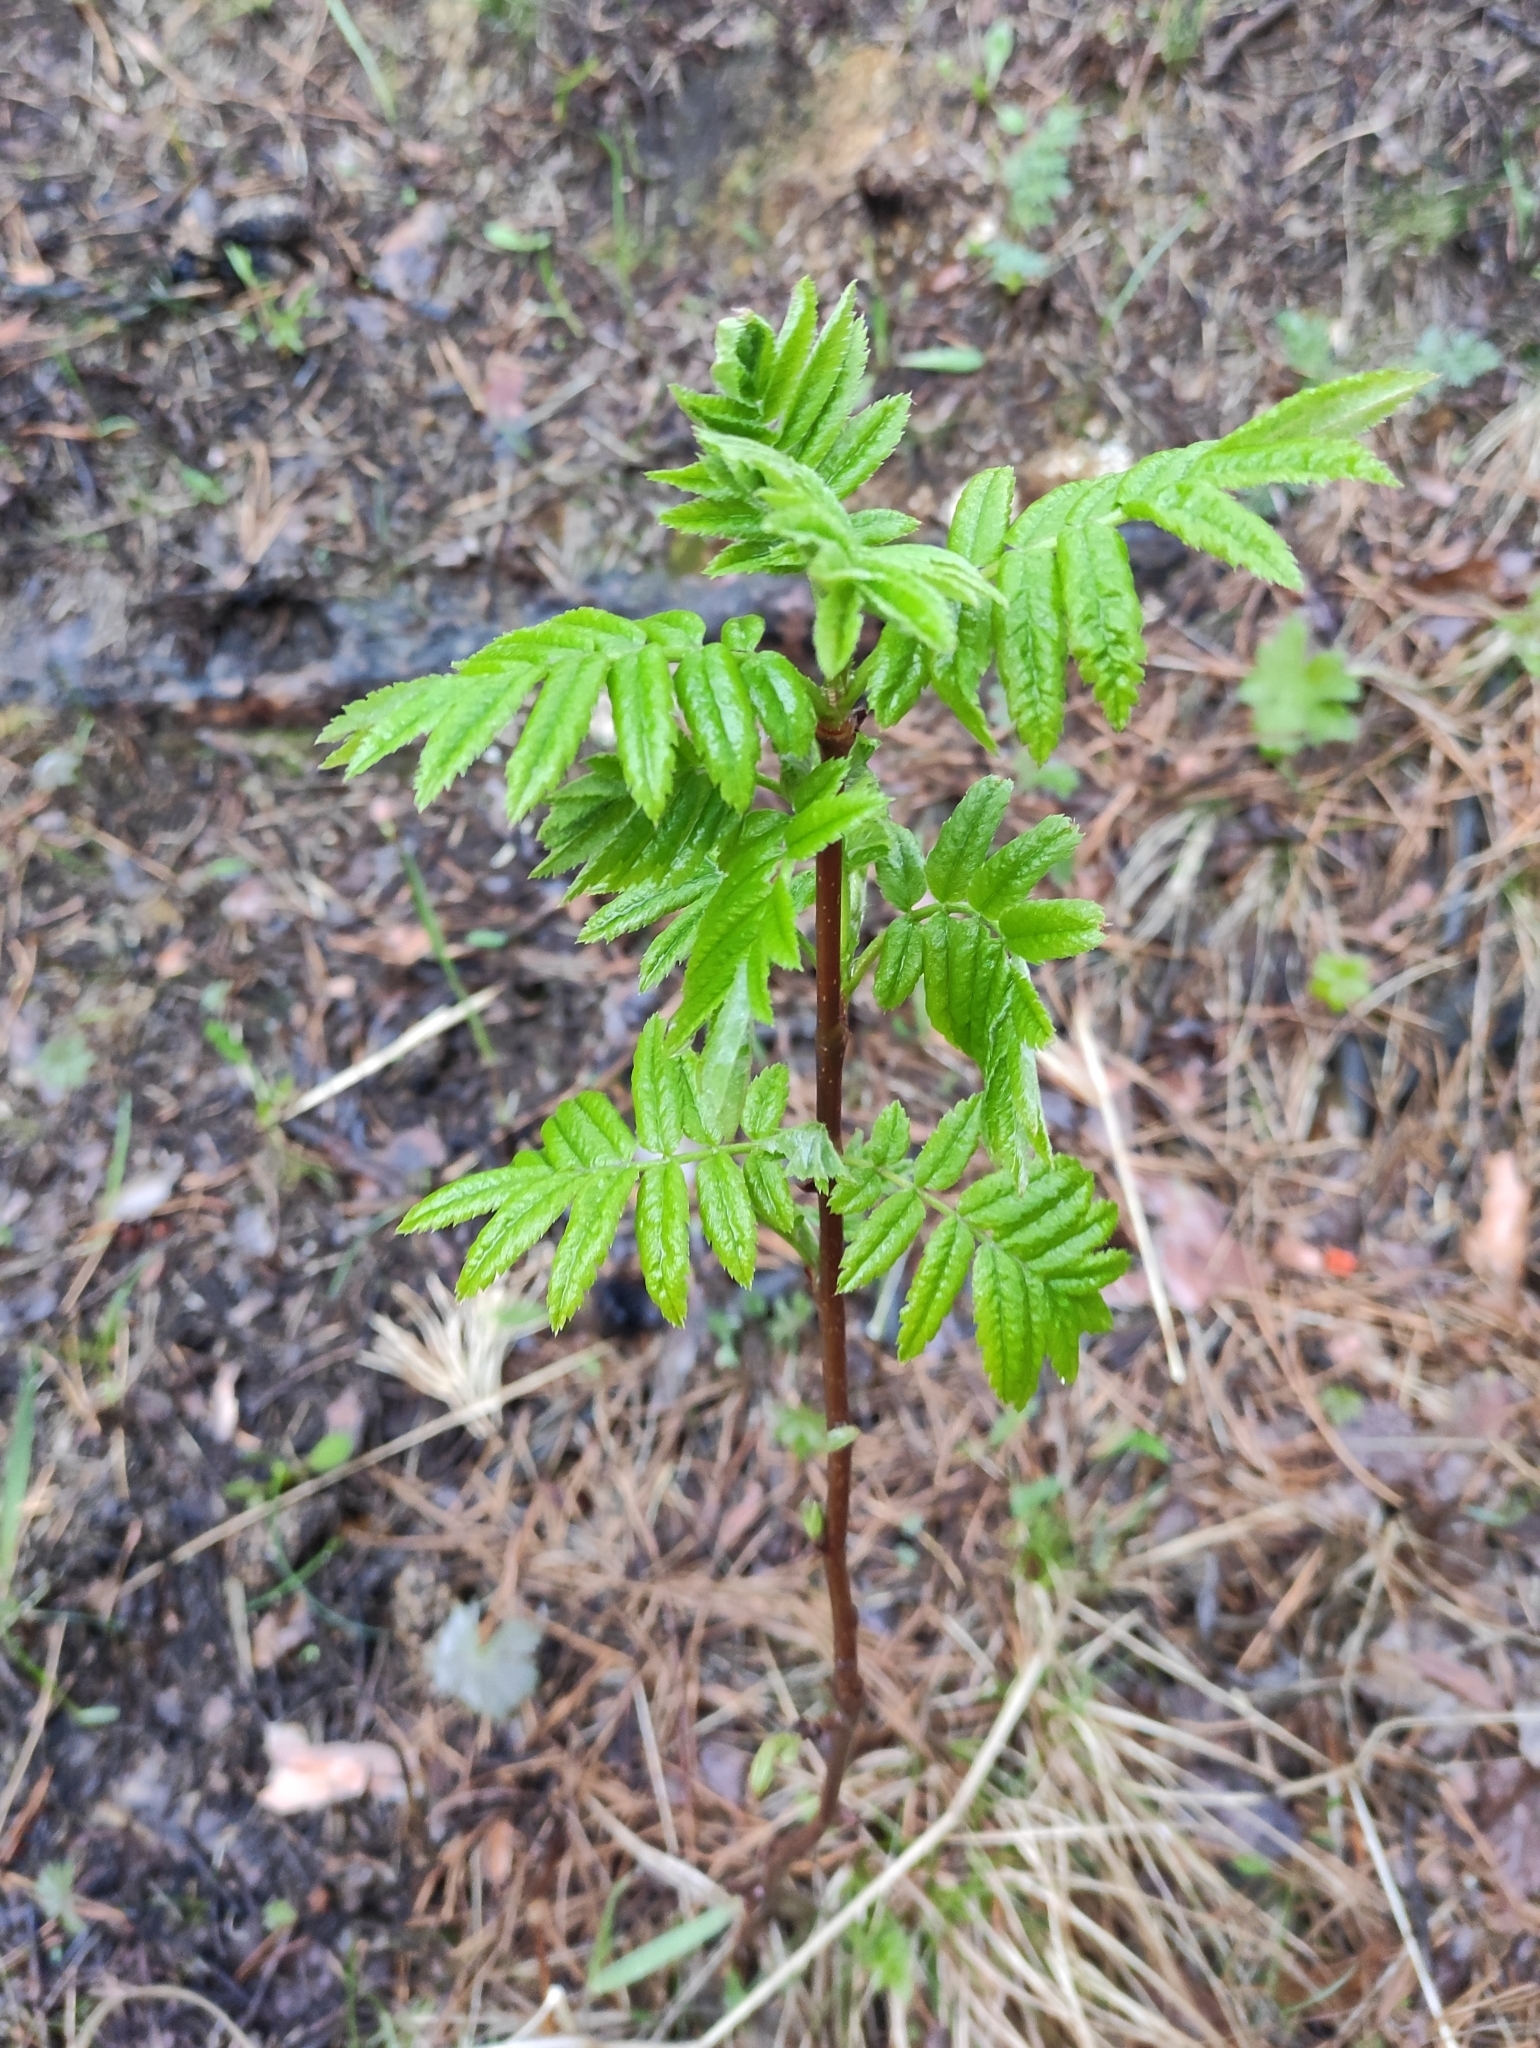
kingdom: Plantae
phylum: Tracheophyta
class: Magnoliopsida
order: Rosales
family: Rosaceae
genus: Sorbus
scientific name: Sorbus aucuparia
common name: Rowan
